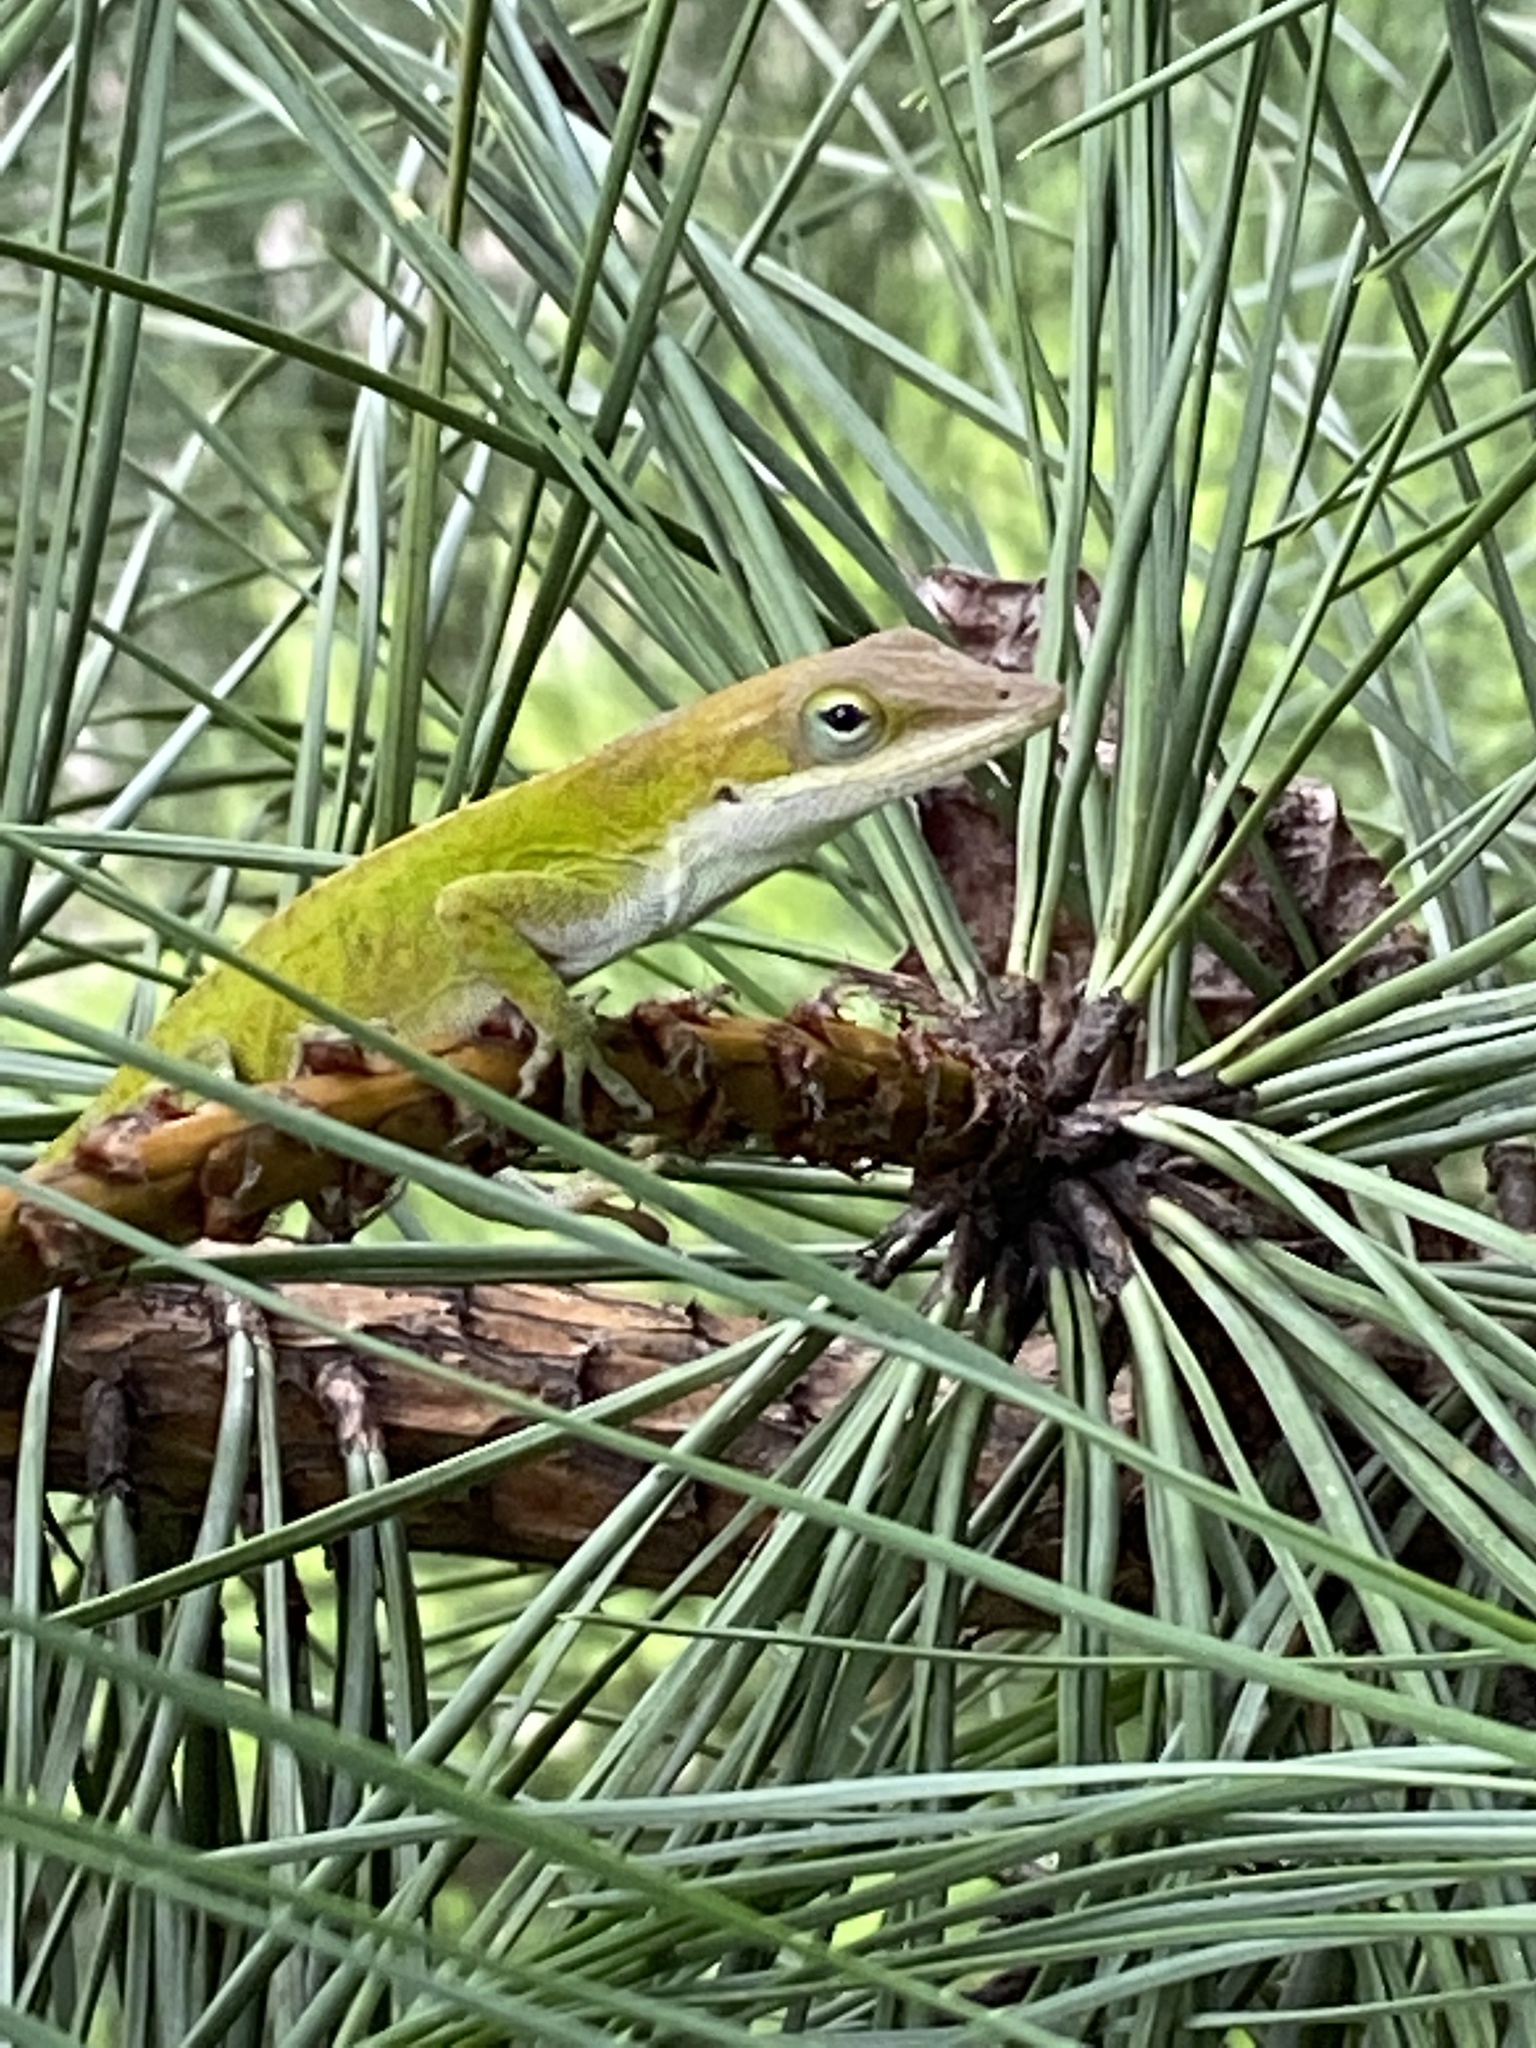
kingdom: Animalia
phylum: Chordata
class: Squamata
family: Dactyloidae
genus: Anolis
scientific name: Anolis carolinensis
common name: Green anole
